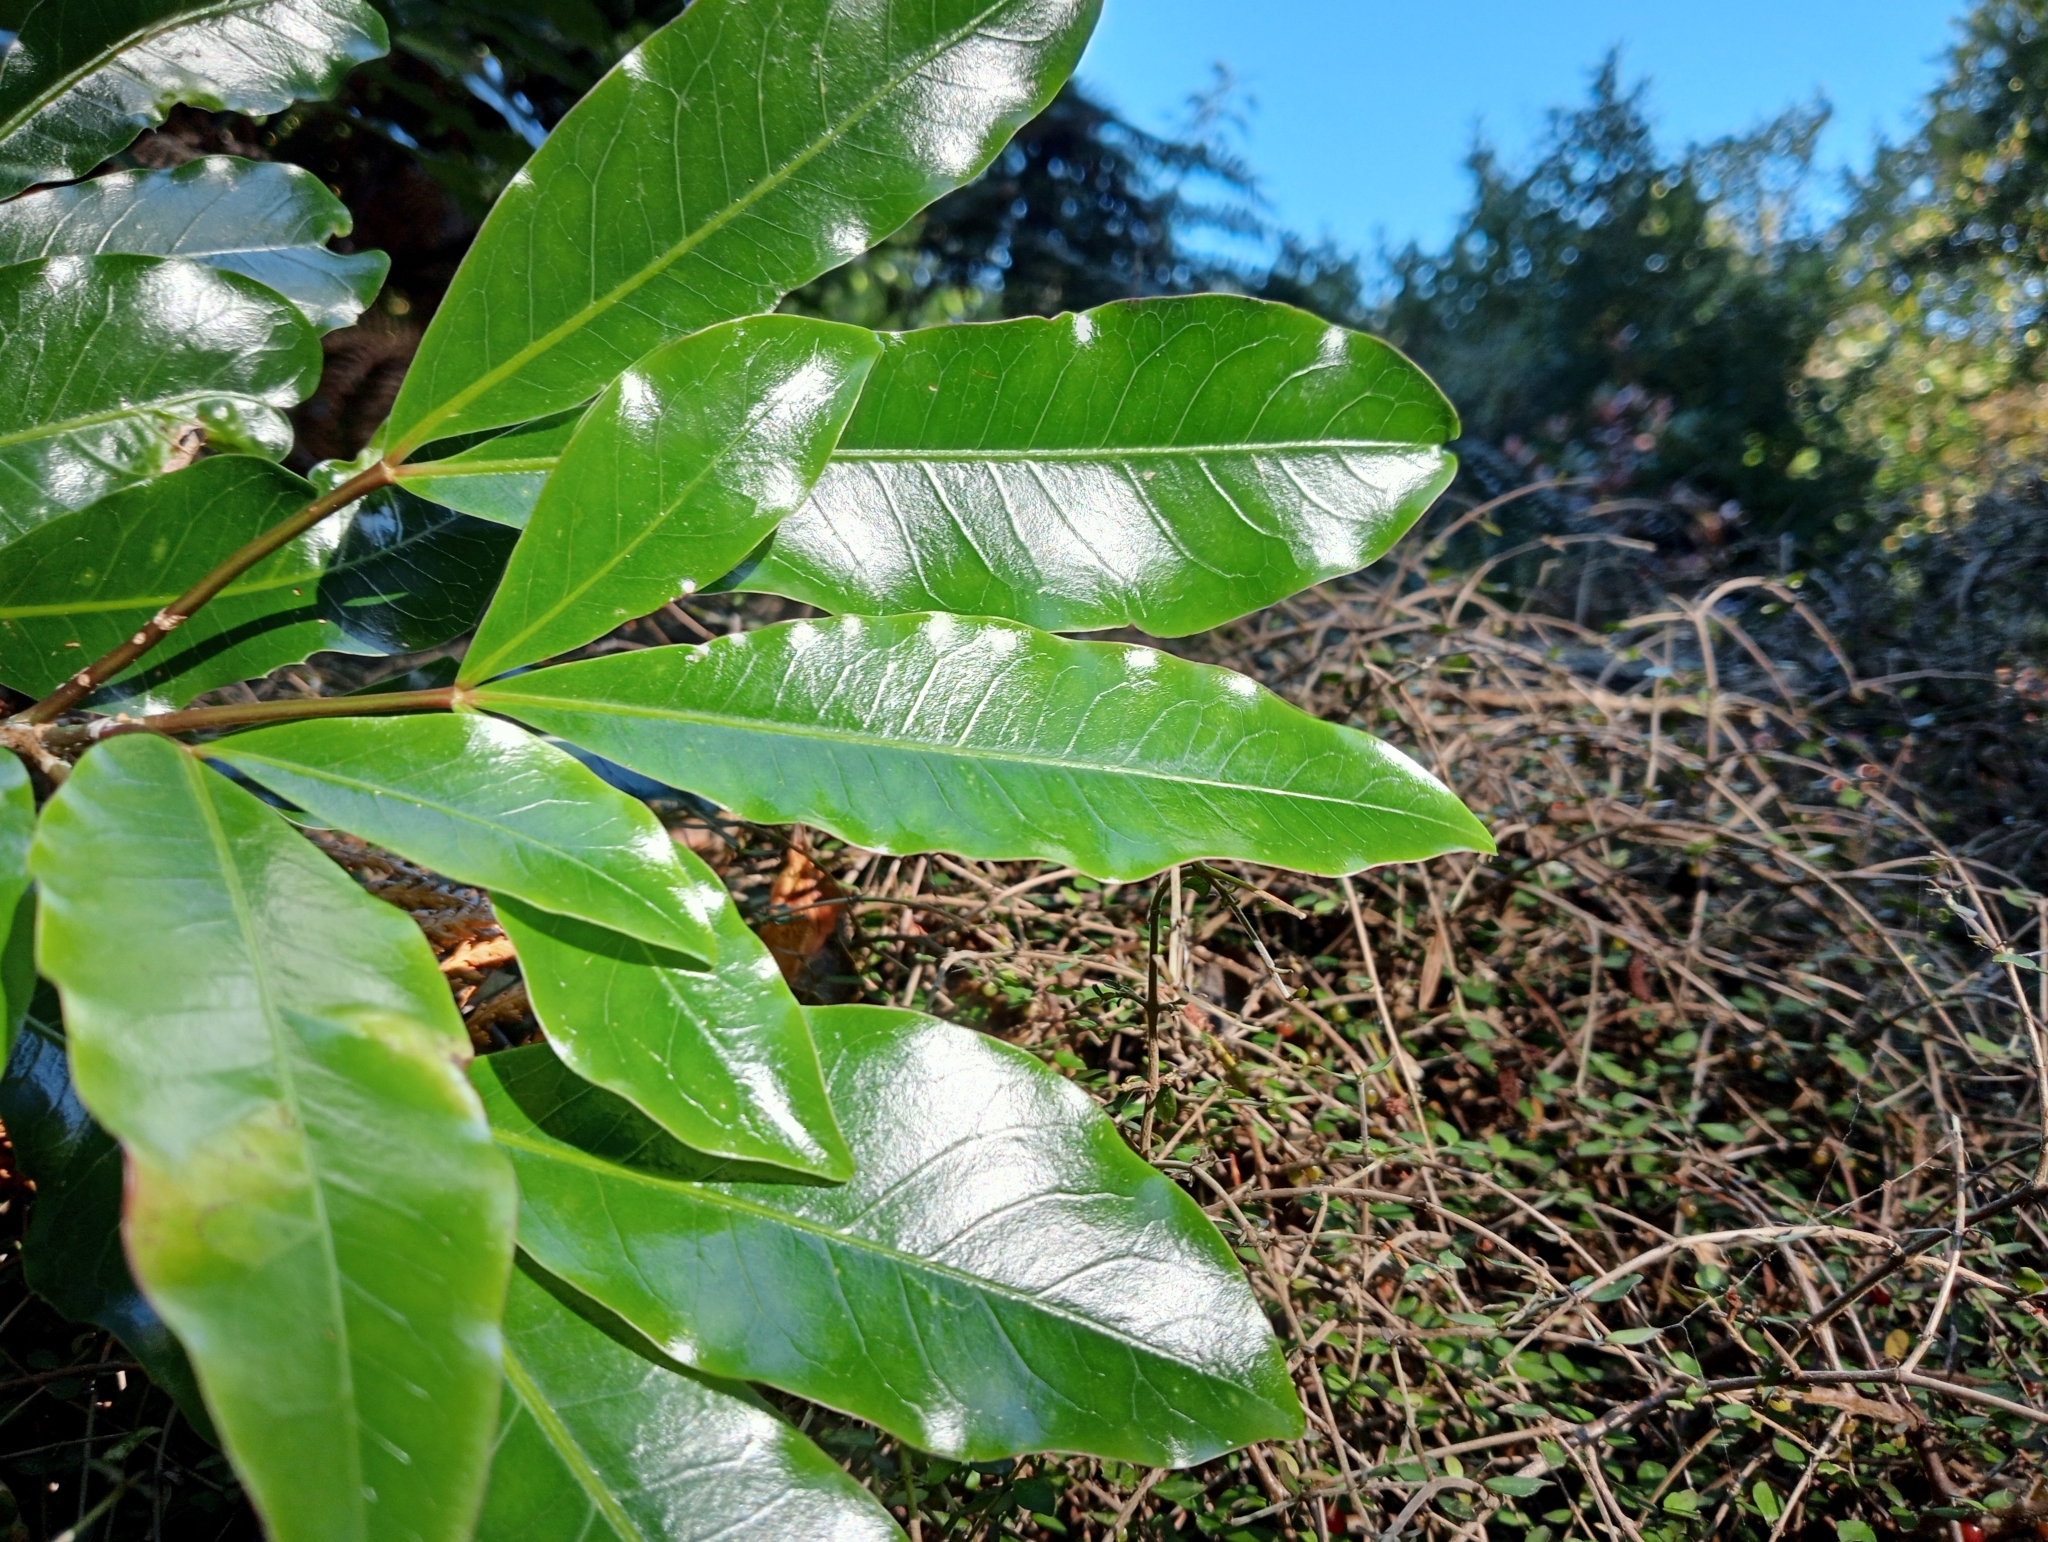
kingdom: Plantae
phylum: Tracheophyta
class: Magnoliopsida
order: Apiales
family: Araliaceae
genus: Raukaua
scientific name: Raukaua edgerleyi
